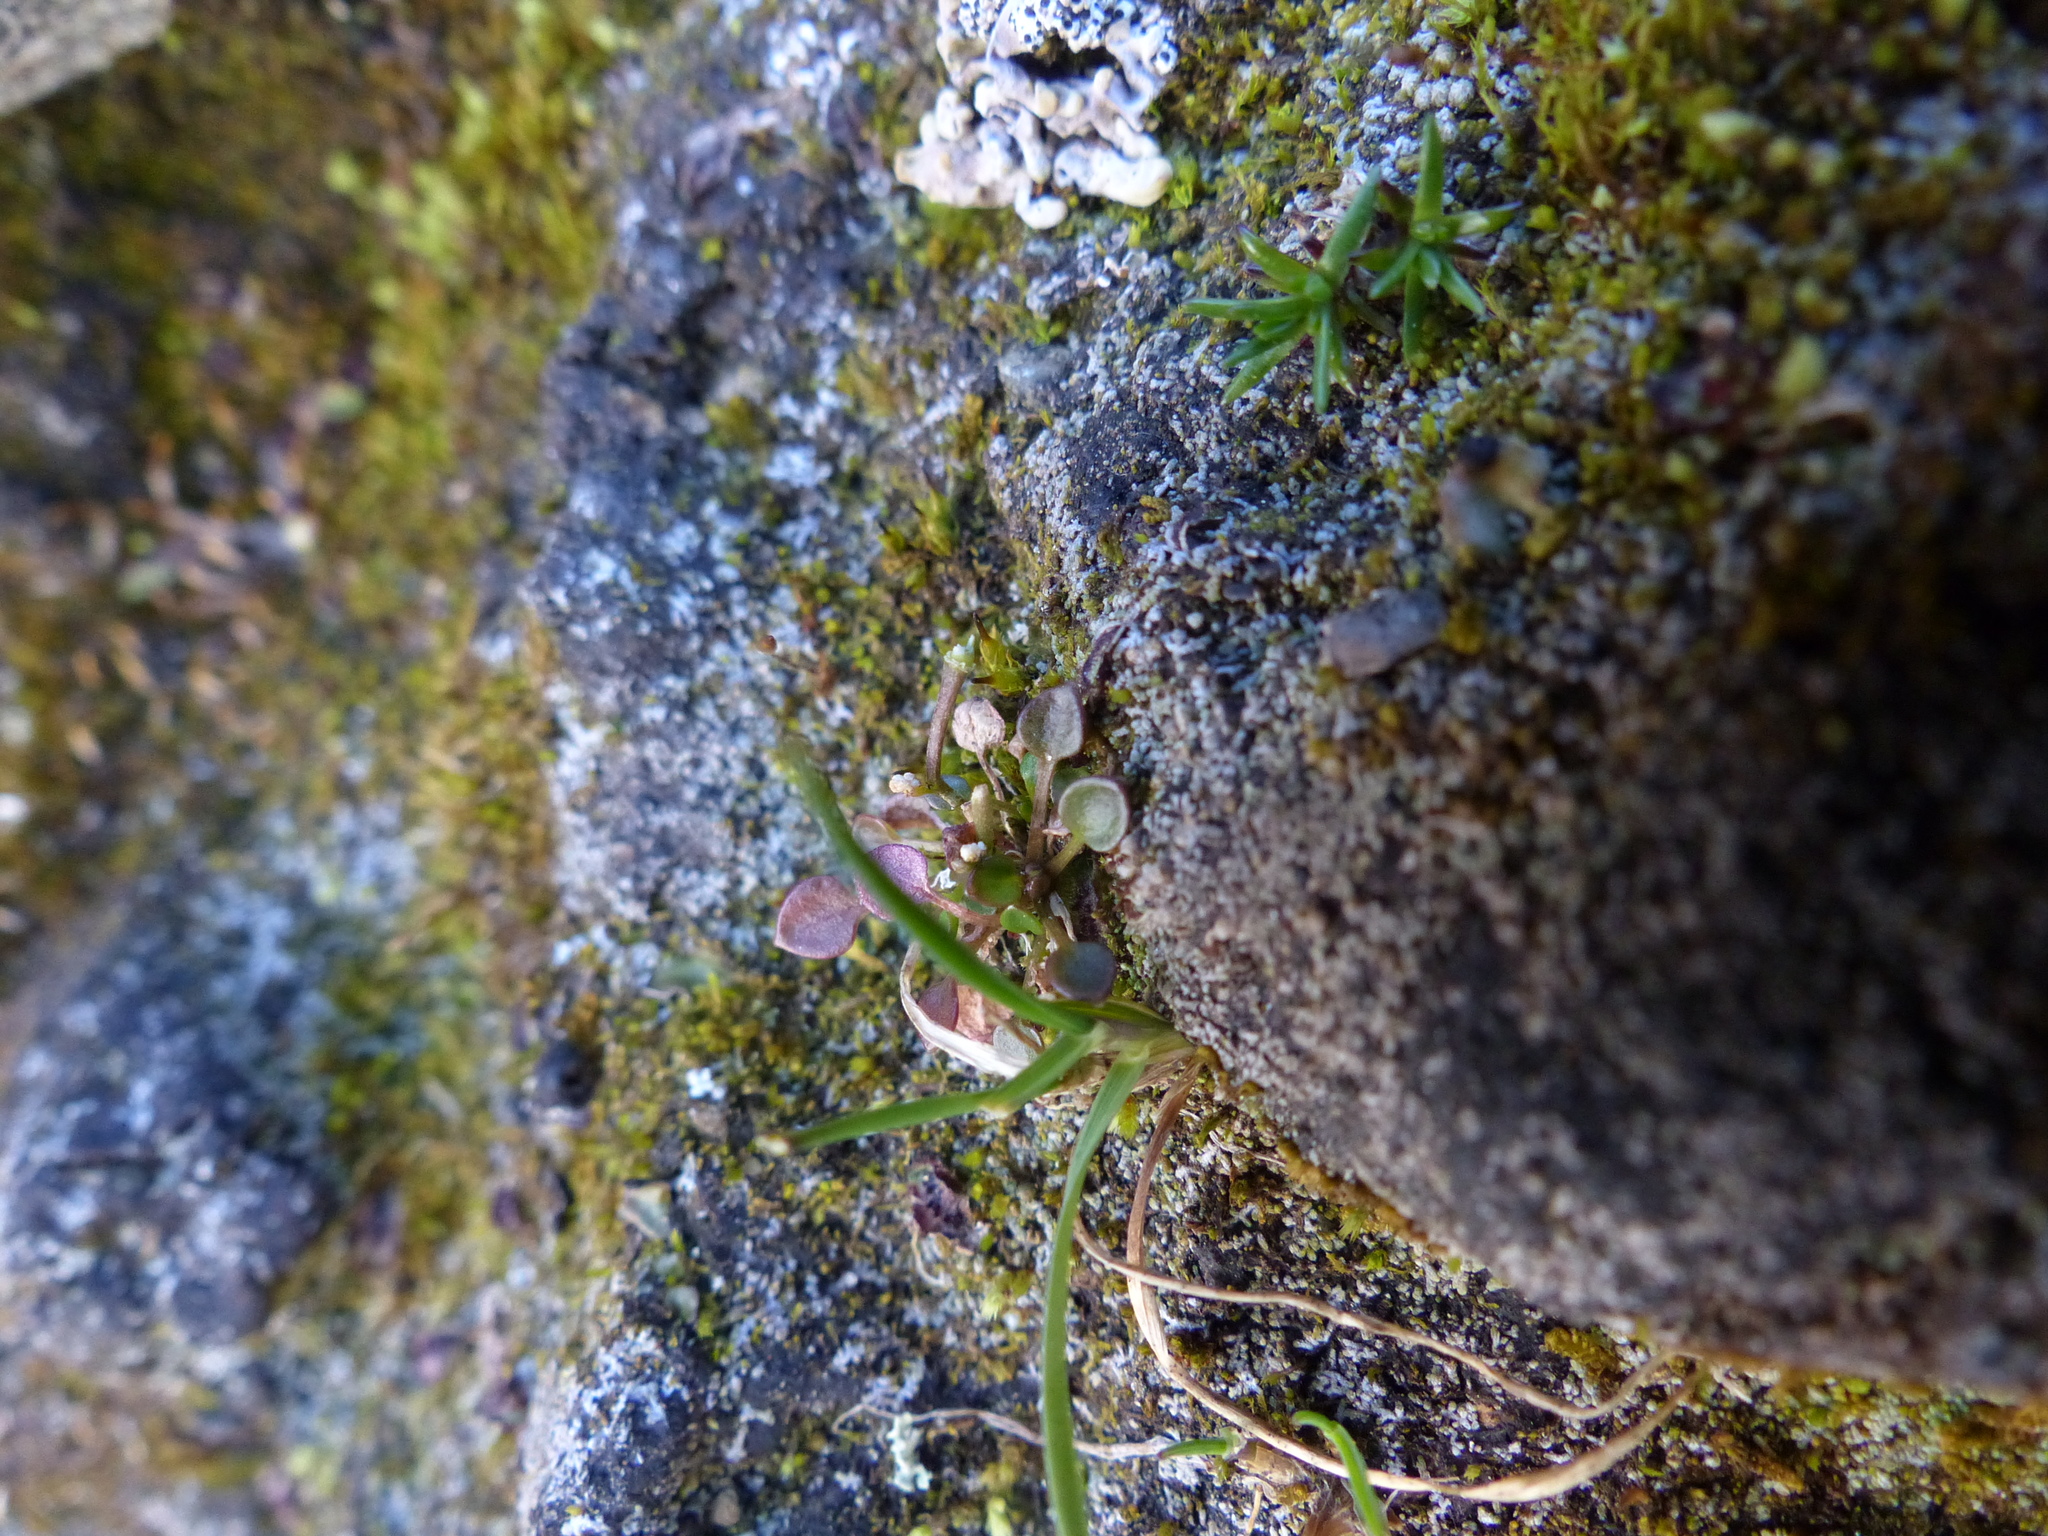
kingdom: Plantae
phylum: Tracheophyta
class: Magnoliopsida
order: Brassicales
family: Brassicaceae
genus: Cardamine
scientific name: Cardamine bellidifolia
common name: Alpine bittercress
